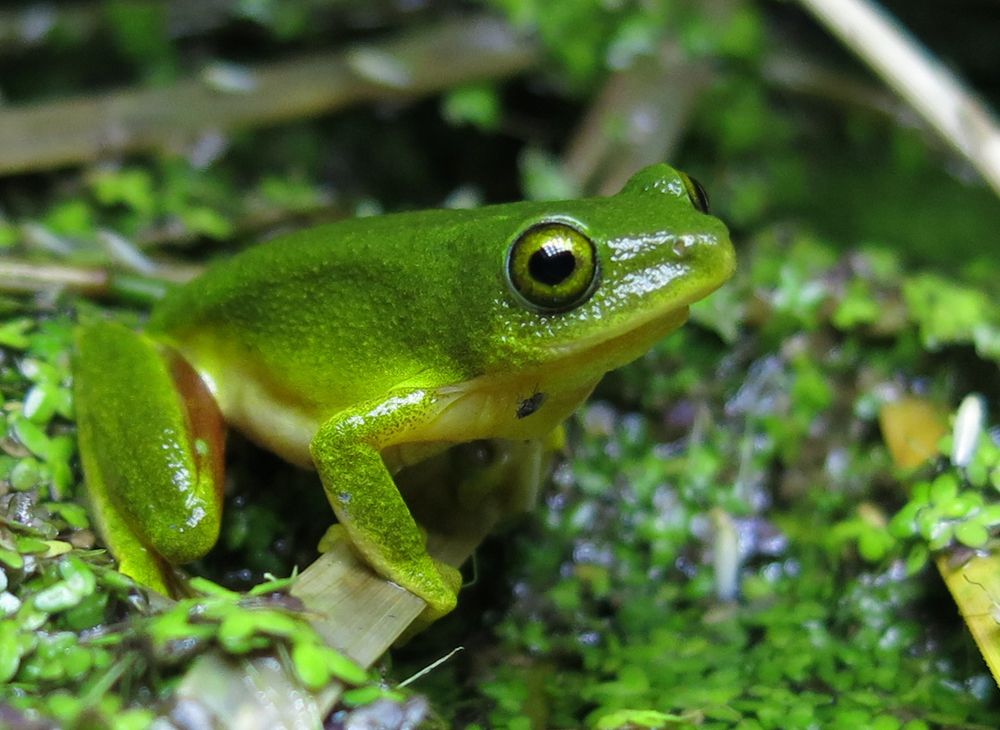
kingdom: Animalia
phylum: Chordata
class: Amphibia
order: Anura
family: Hyperoliidae
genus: Hyperolius
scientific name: Hyperolius tuberilinguis
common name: Tinker reed frog
